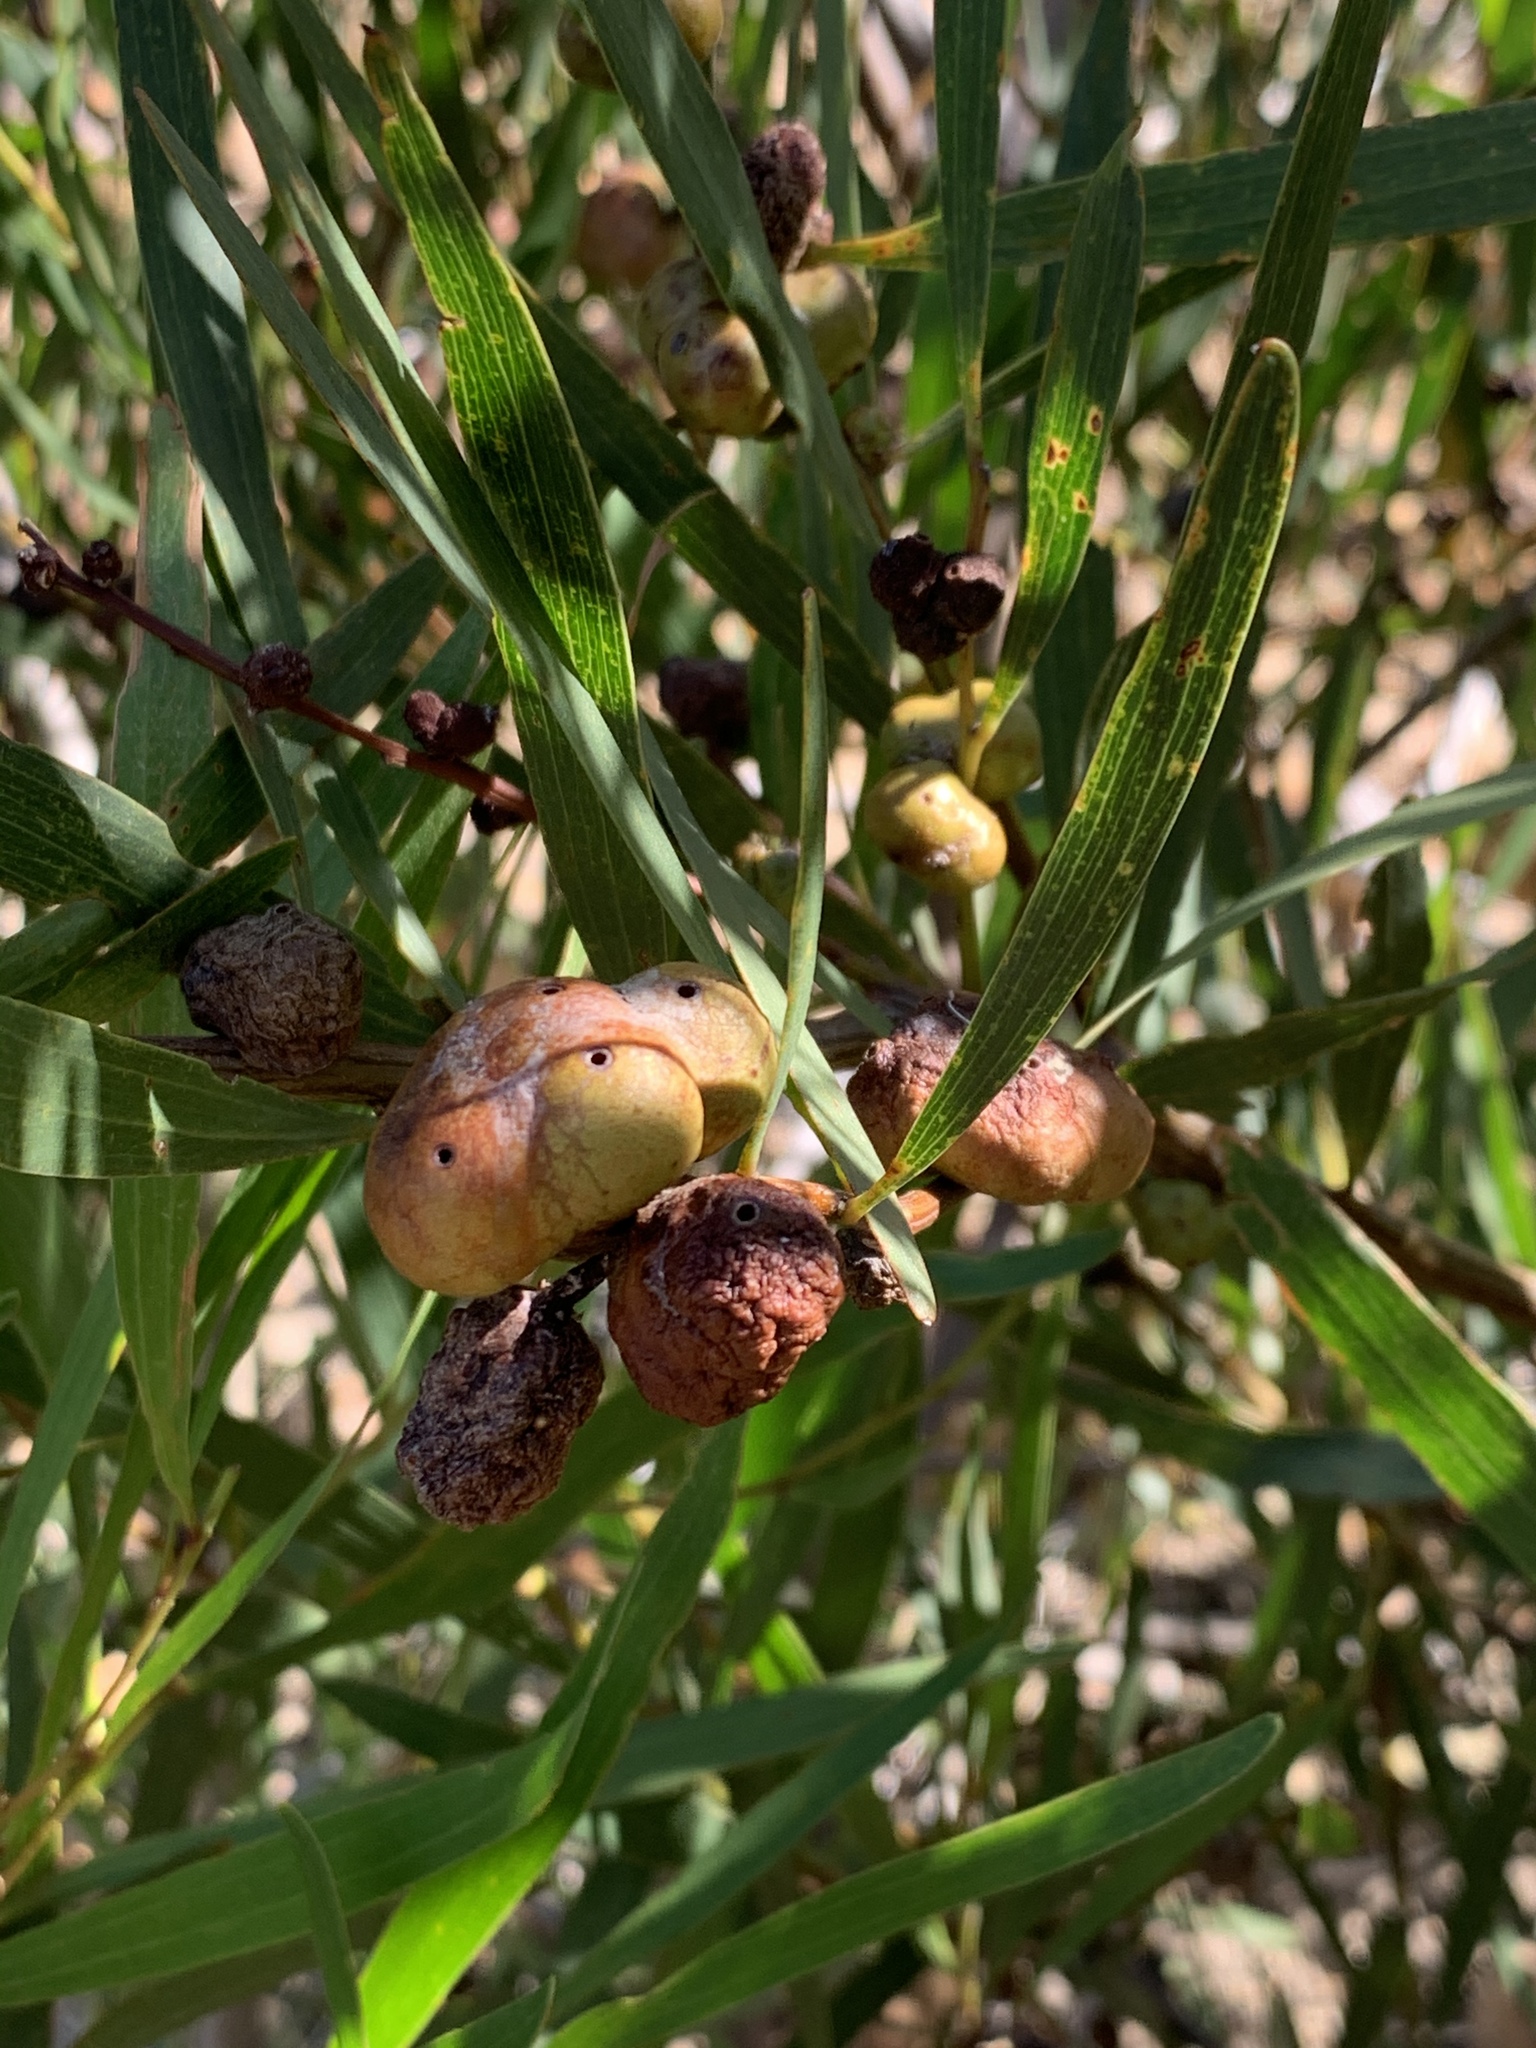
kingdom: Animalia
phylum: Arthropoda
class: Insecta
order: Hymenoptera
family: Pteromalidae
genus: Trichilogaster
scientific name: Trichilogaster acaciaelongifoliae
